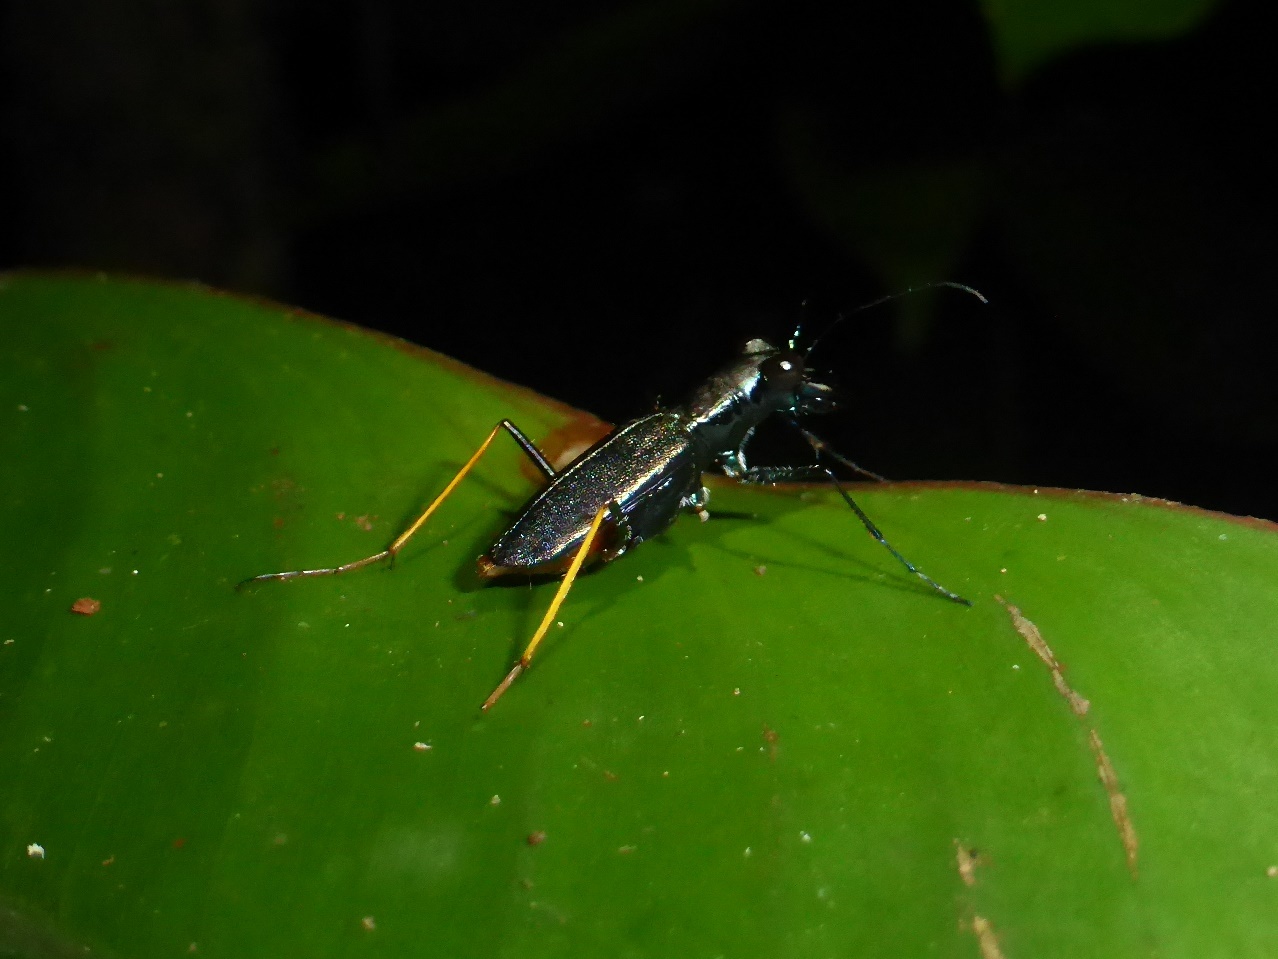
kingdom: Animalia
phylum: Arthropoda
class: Insecta
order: Coleoptera
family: Carabidae
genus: Odontocheila
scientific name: Odontocheila cajennensis
